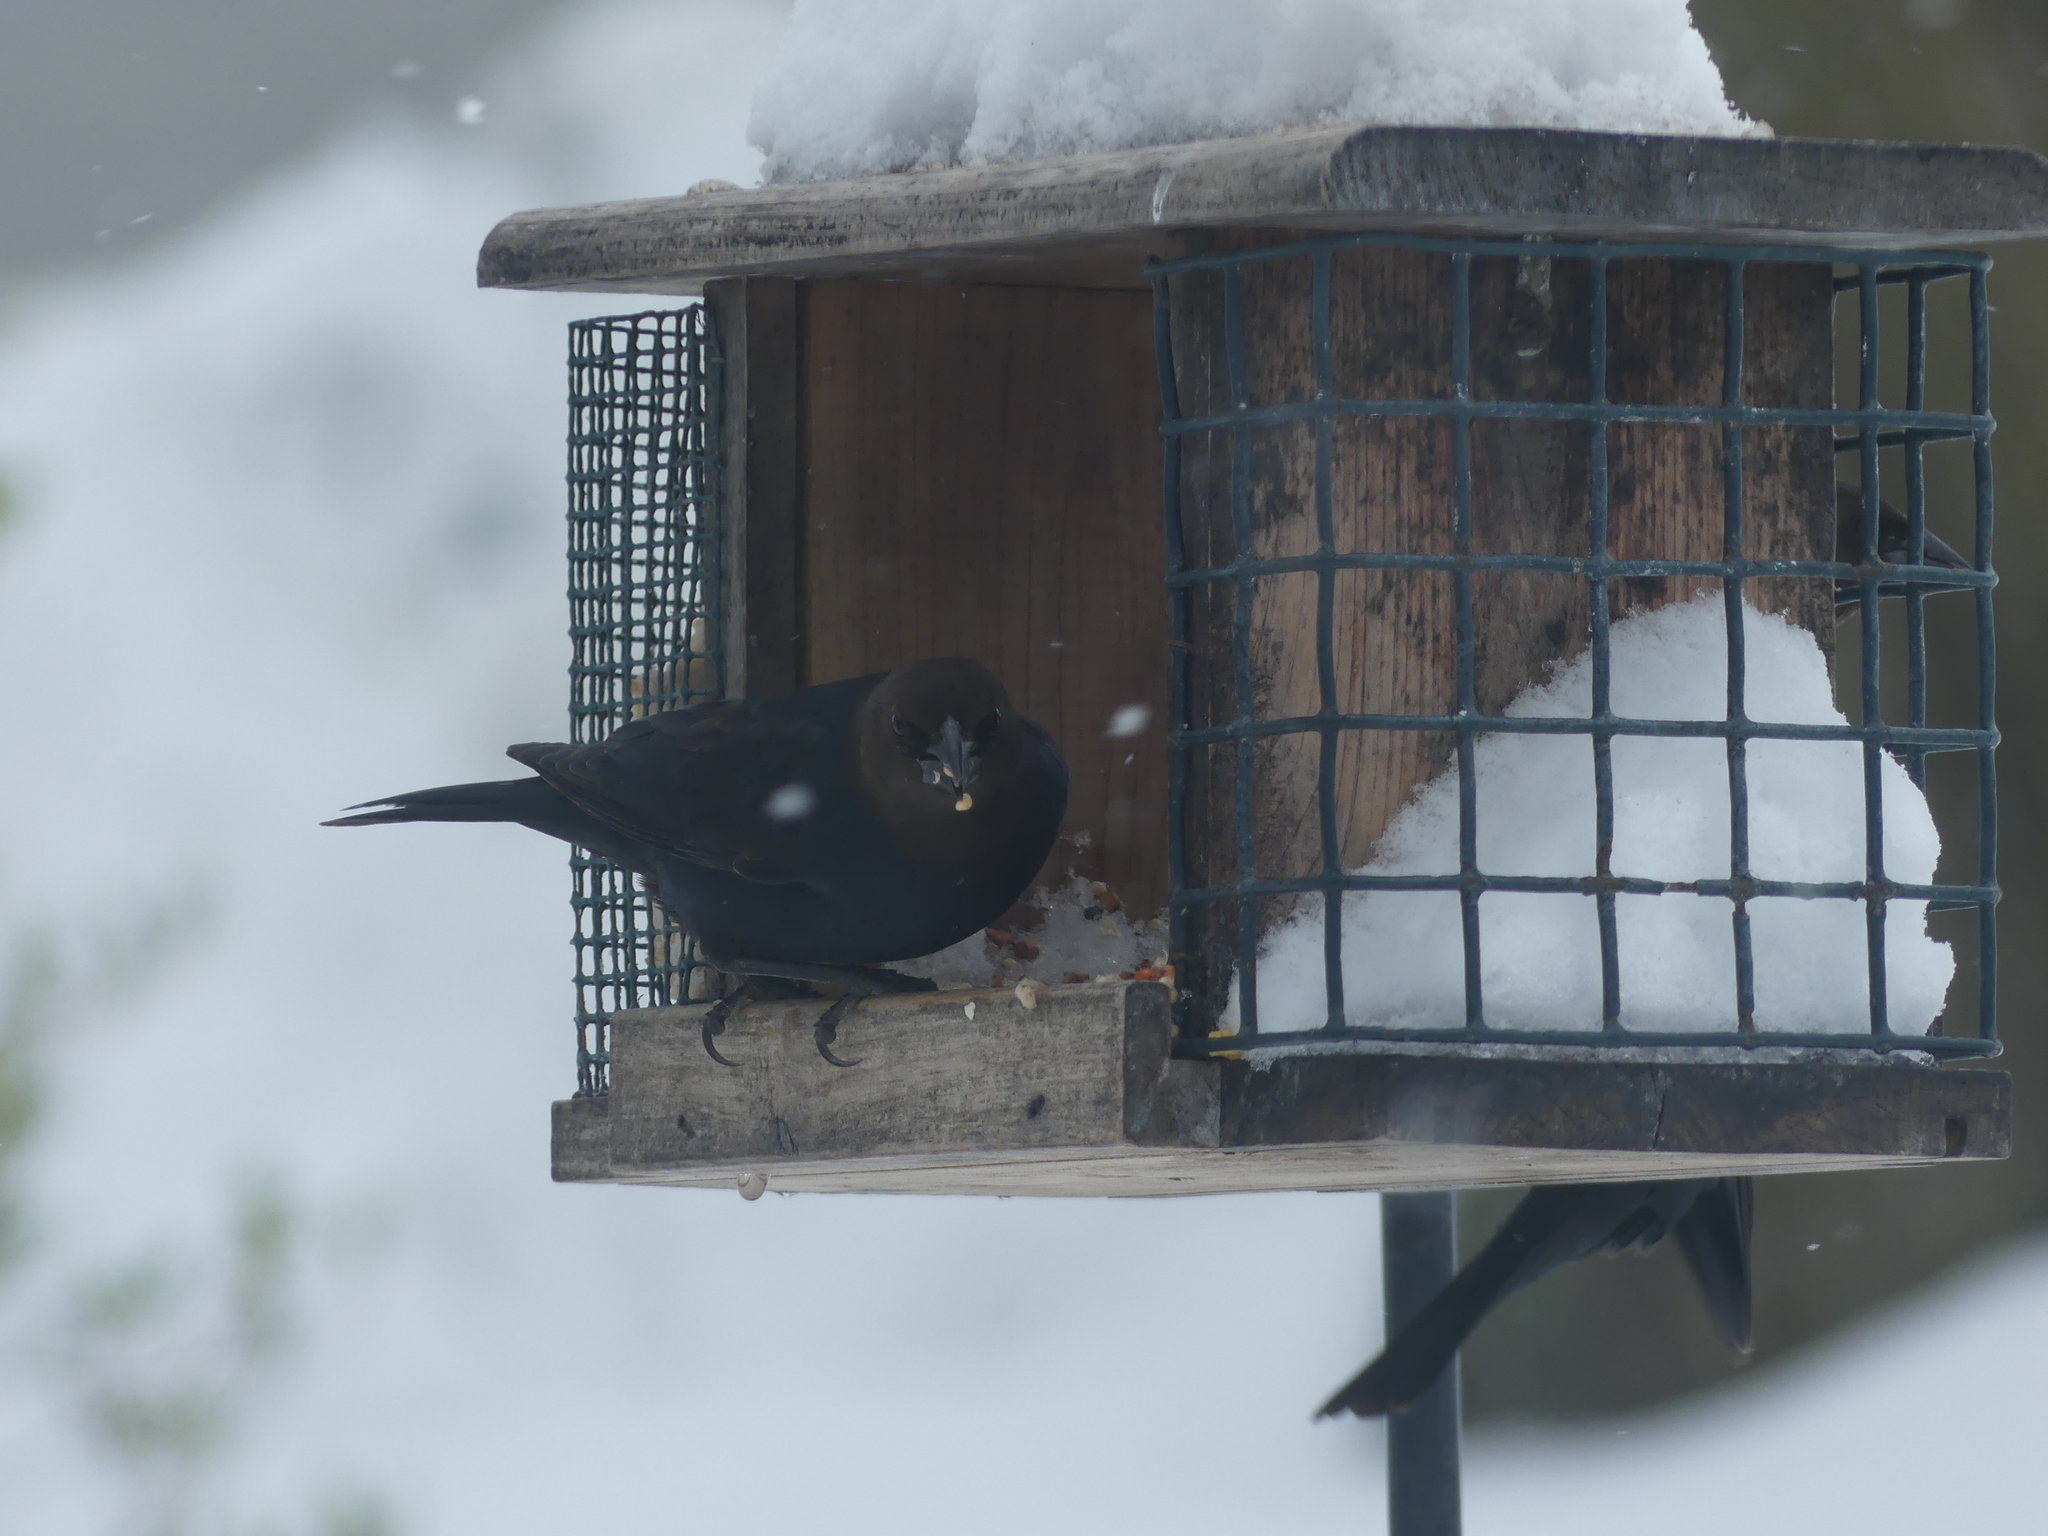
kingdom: Animalia
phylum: Chordata
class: Aves
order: Passeriformes
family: Icteridae
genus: Molothrus
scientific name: Molothrus ater
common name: Brown-headed cowbird
